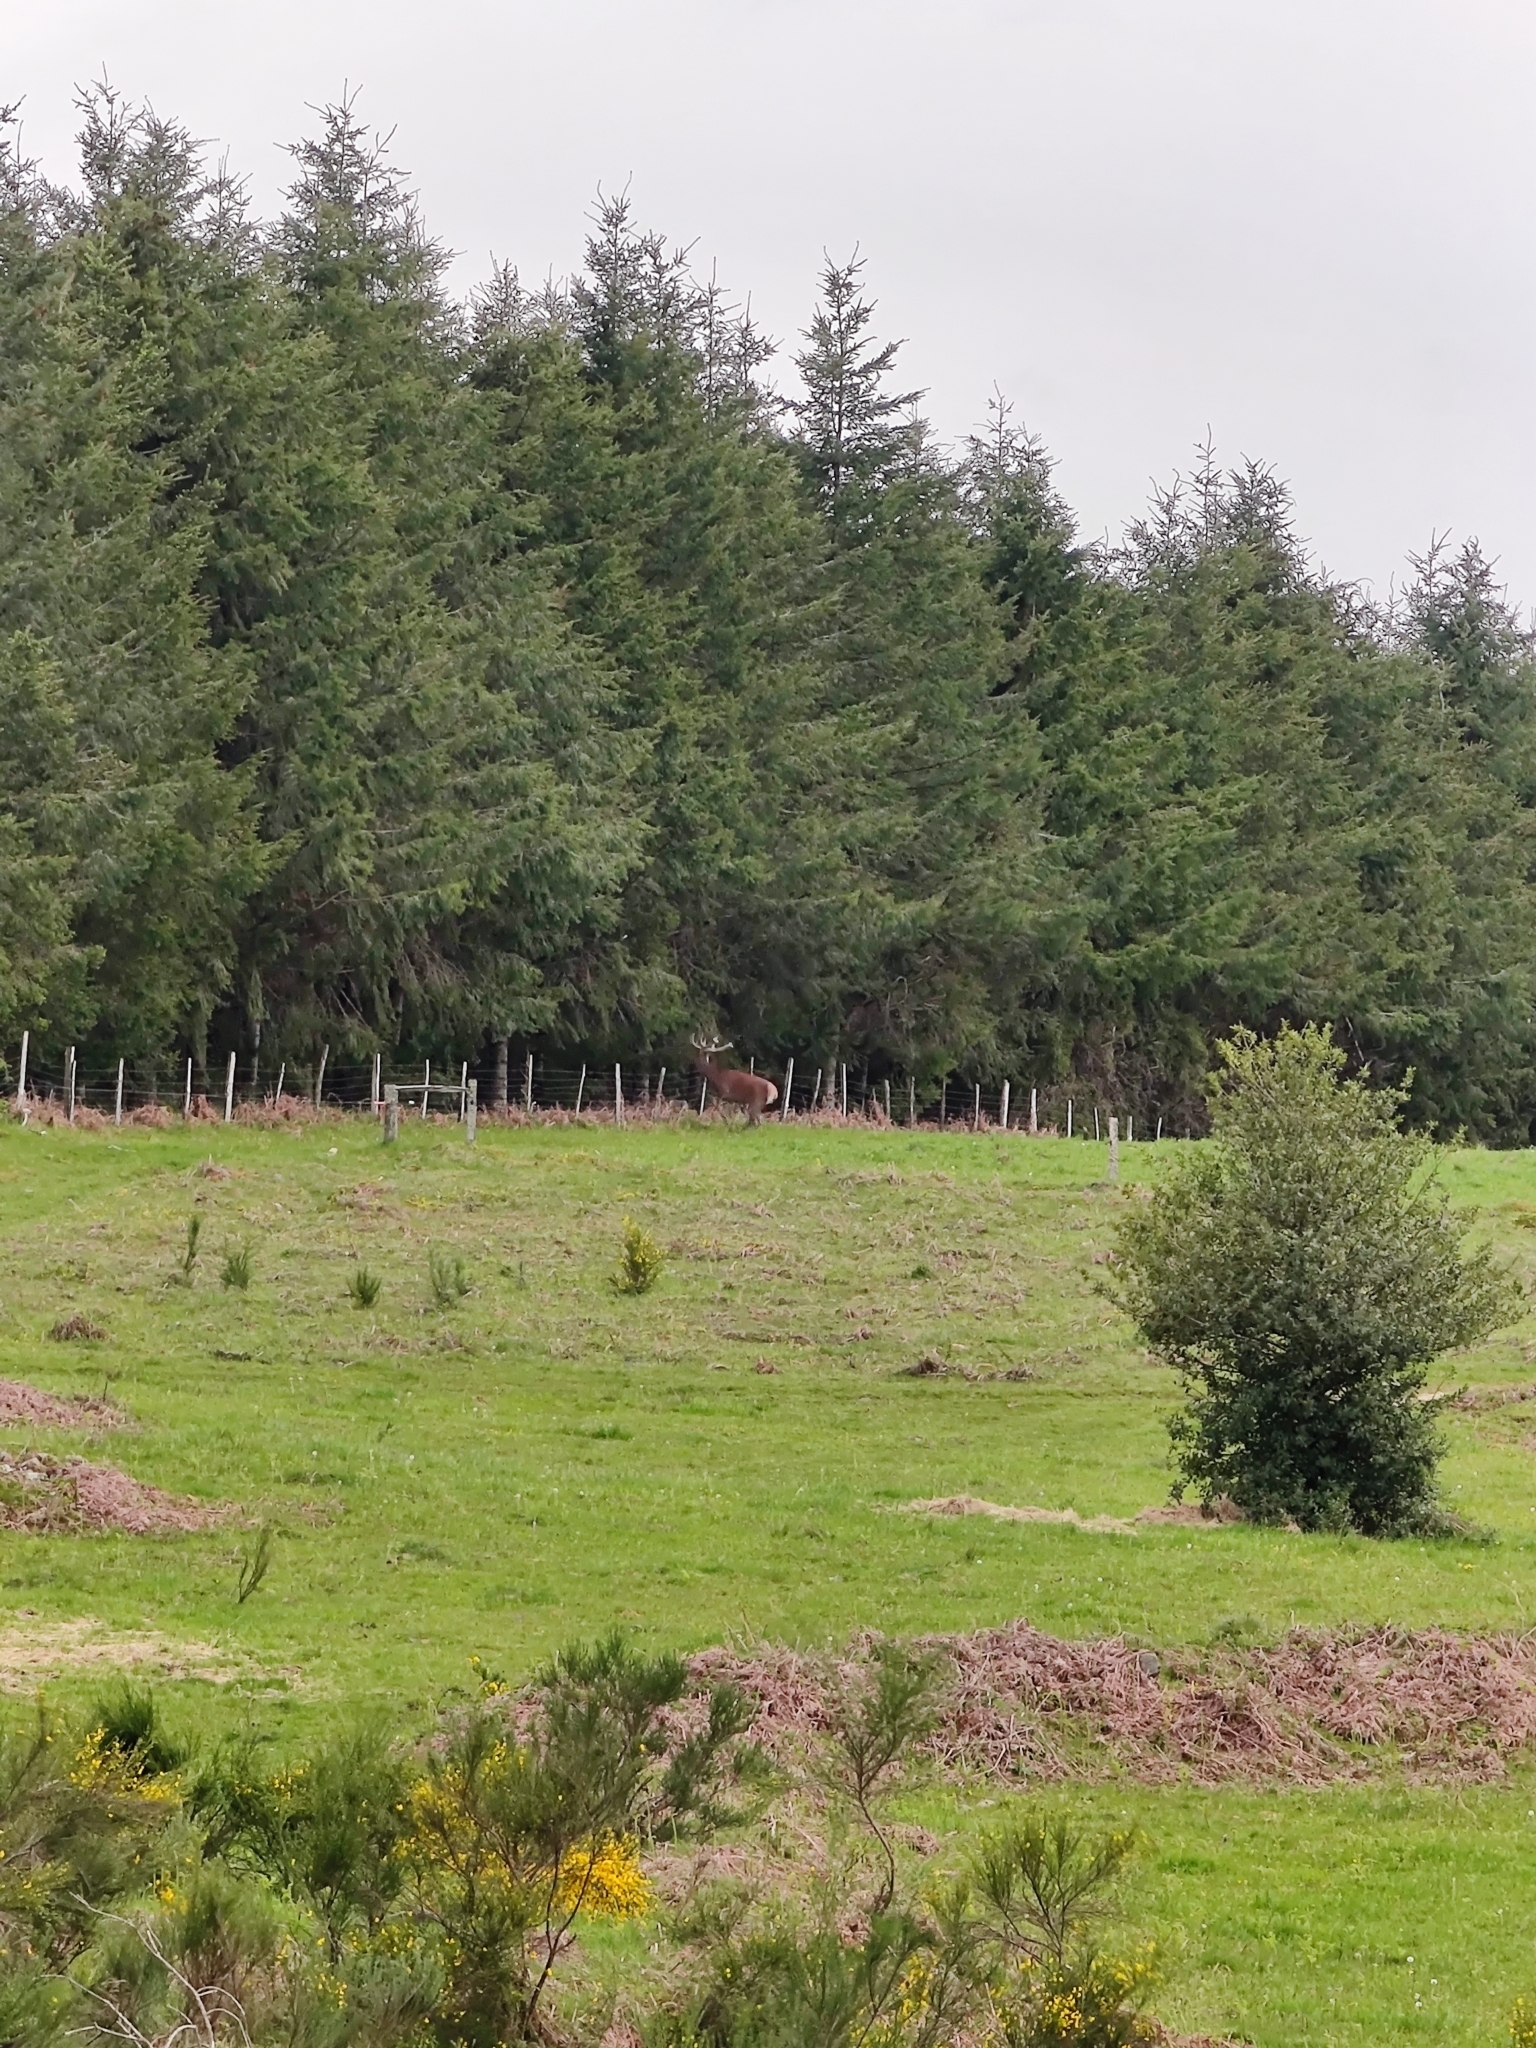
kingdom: Animalia
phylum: Chordata
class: Mammalia
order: Artiodactyla
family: Cervidae
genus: Cervus
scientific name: Cervus elaphus
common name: Red deer
